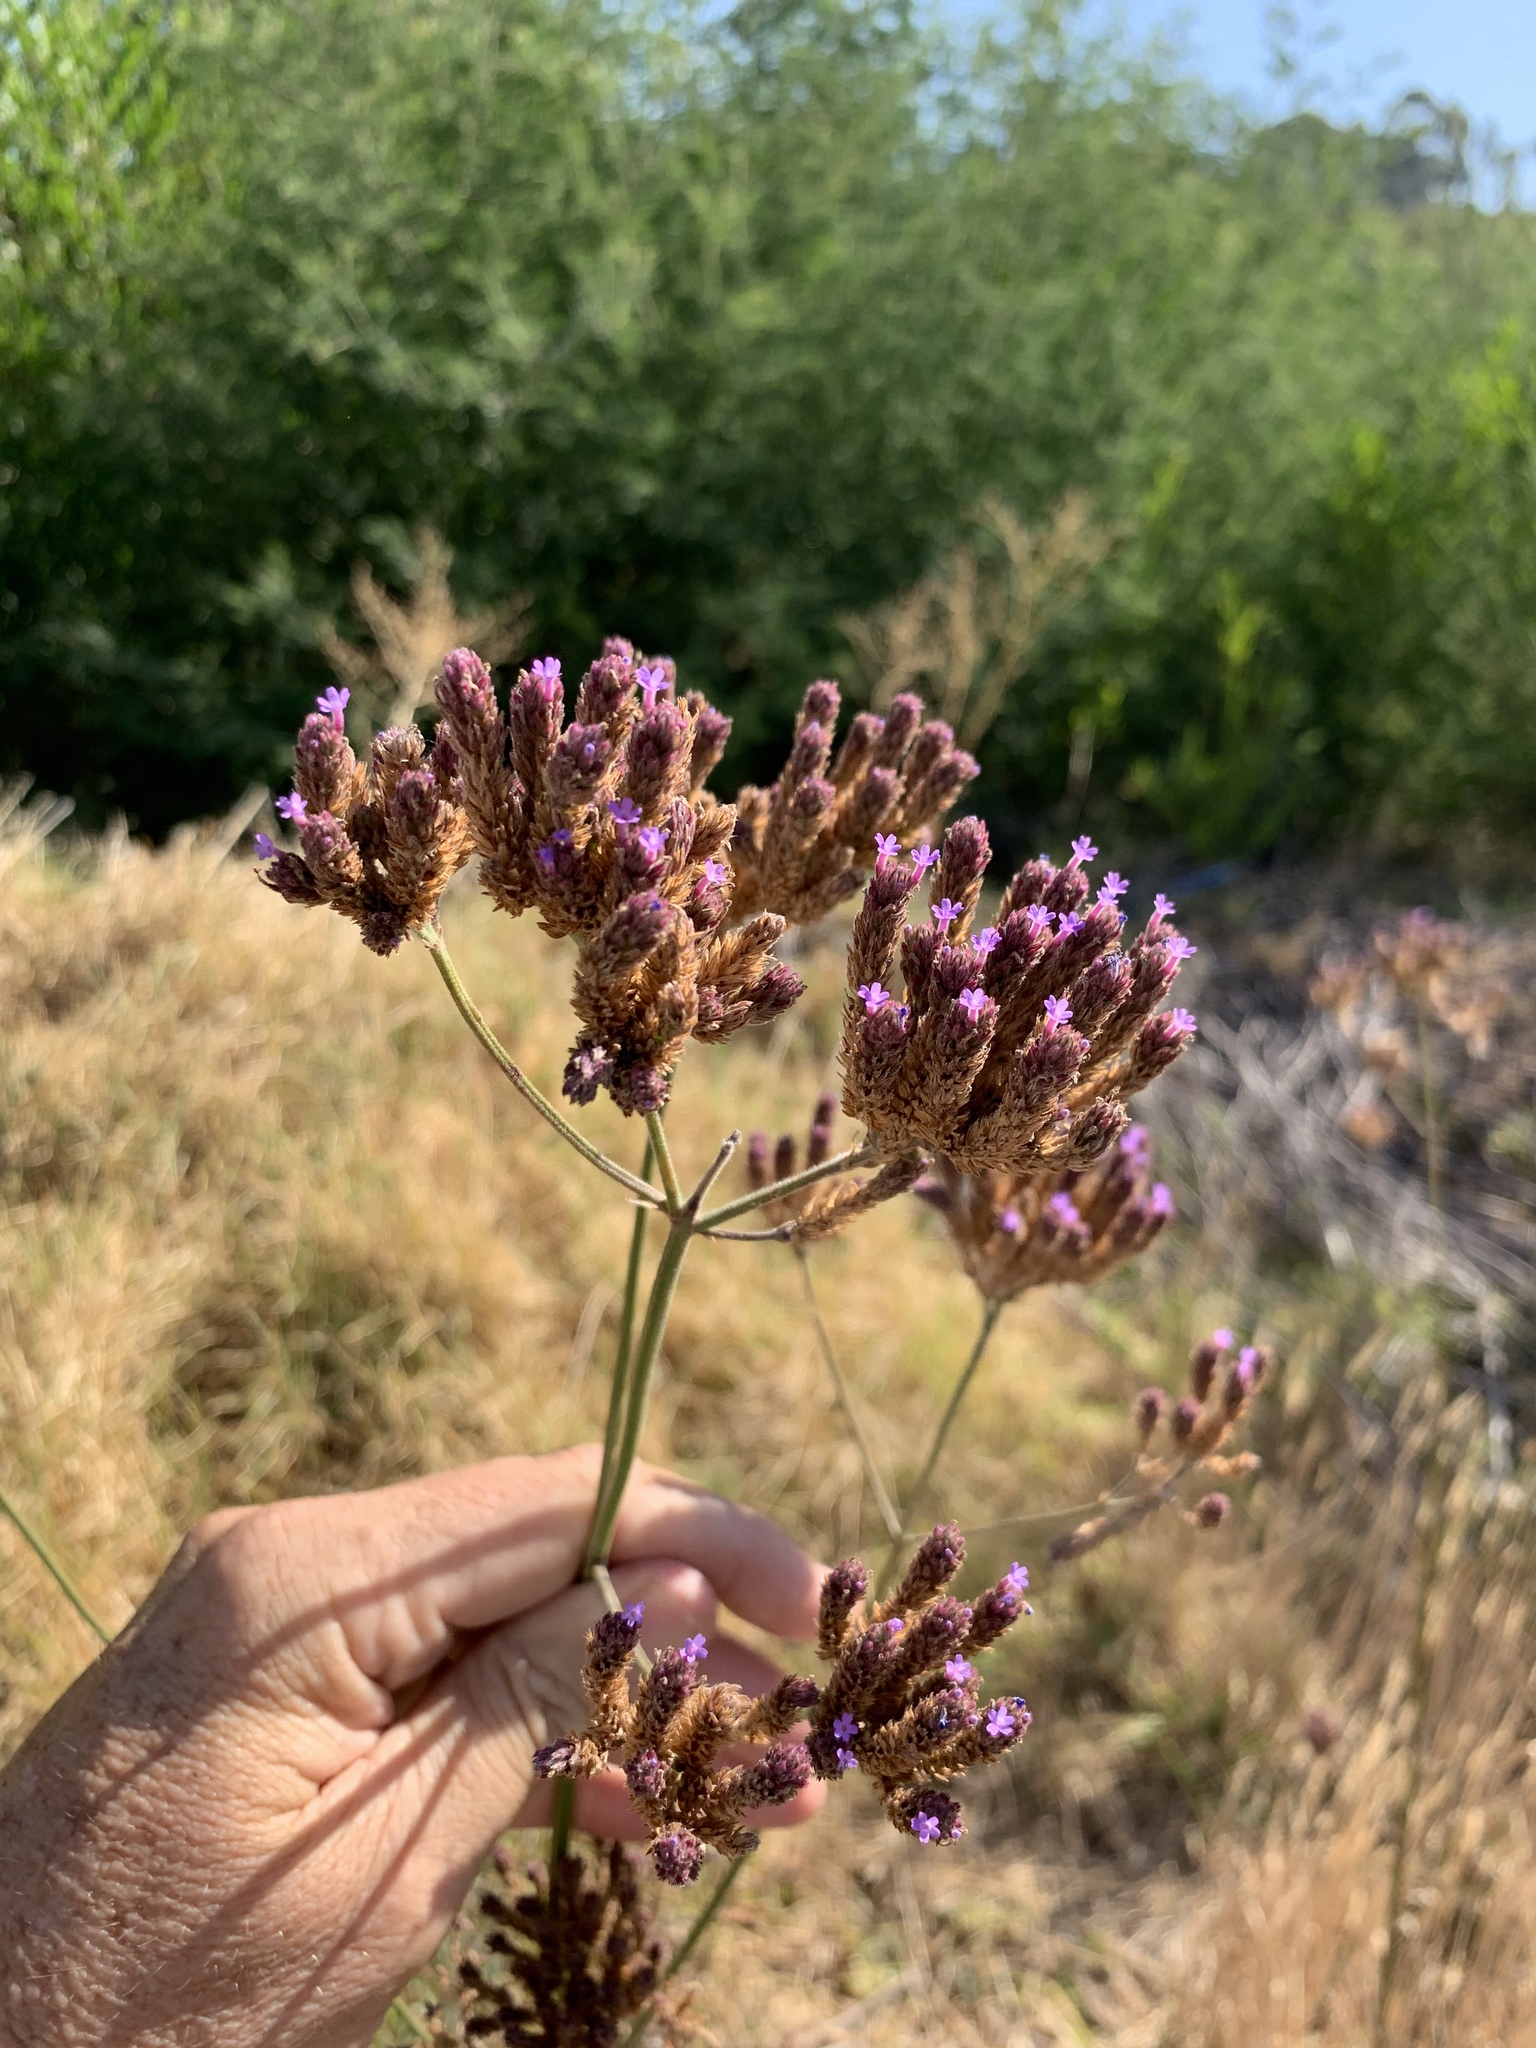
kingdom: Plantae
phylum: Tracheophyta
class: Magnoliopsida
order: Lamiales
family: Verbenaceae
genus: Verbena
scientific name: Verbena bonariensis
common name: Purpletop vervain
